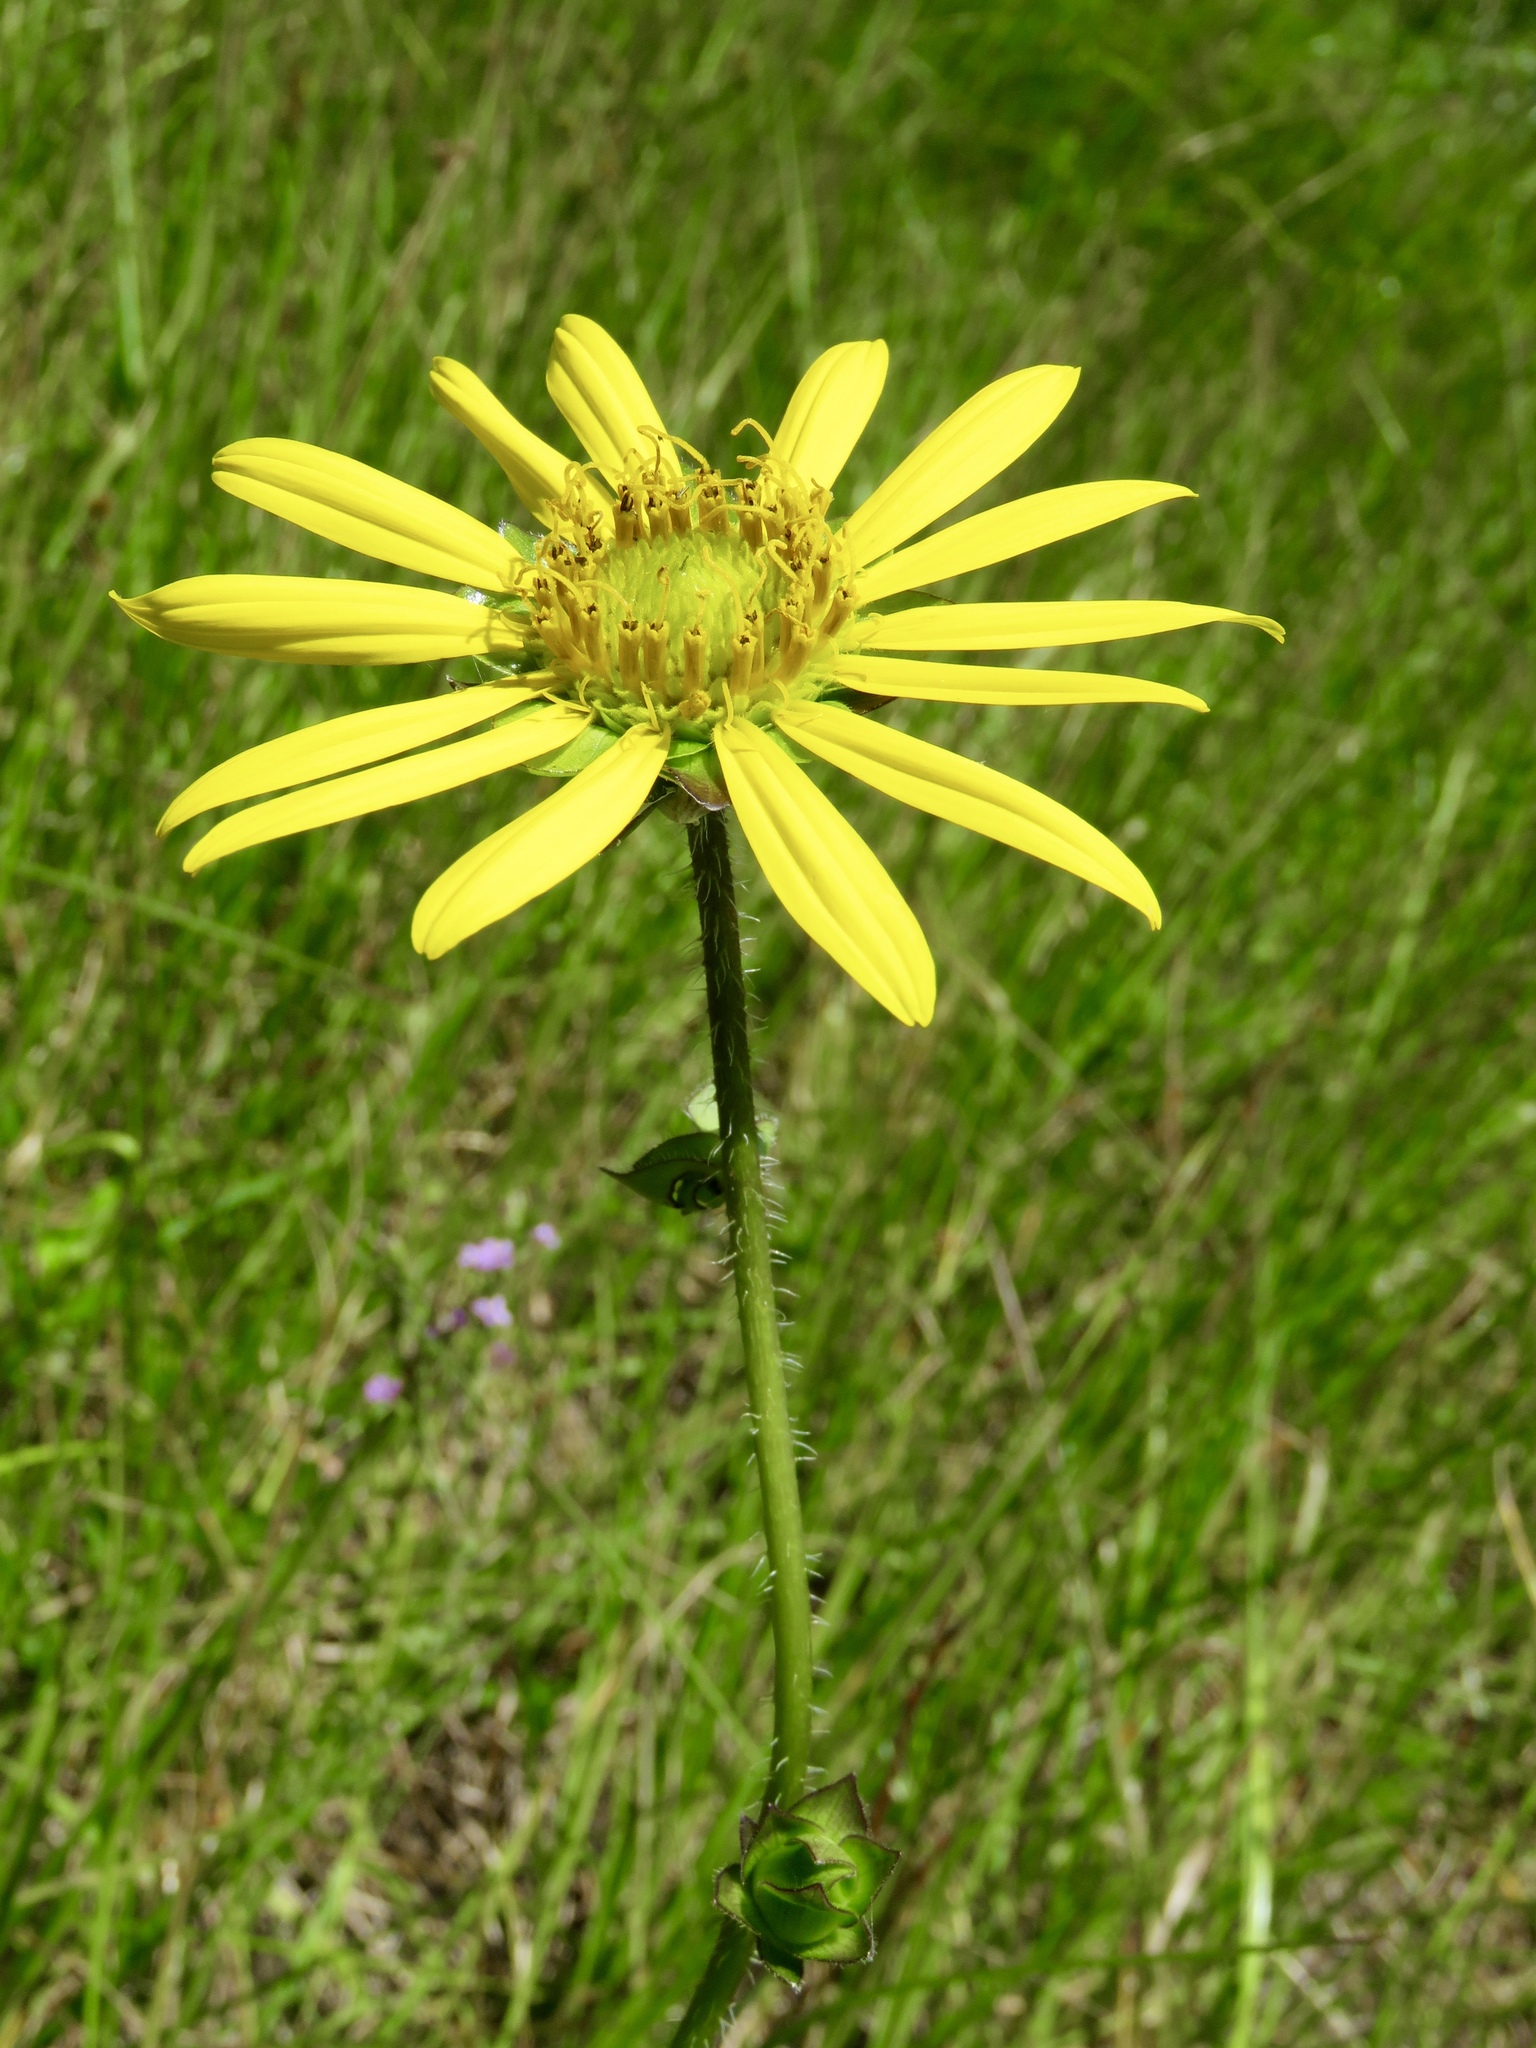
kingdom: Plantae
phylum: Tracheophyta
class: Magnoliopsida
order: Asterales
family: Asteraceae
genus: Silphium
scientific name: Silphium radula
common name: Roughleaf rosinweed
